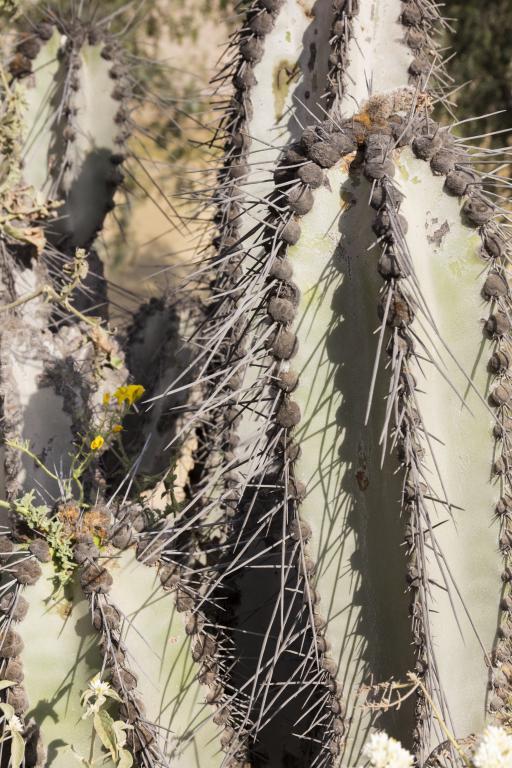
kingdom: Plantae
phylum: Tracheophyta
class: Magnoliopsida
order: Caryophyllales
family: Cactaceae
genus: Neoraimondia
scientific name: Neoraimondia arequipensis
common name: Big-bed-of-straw
